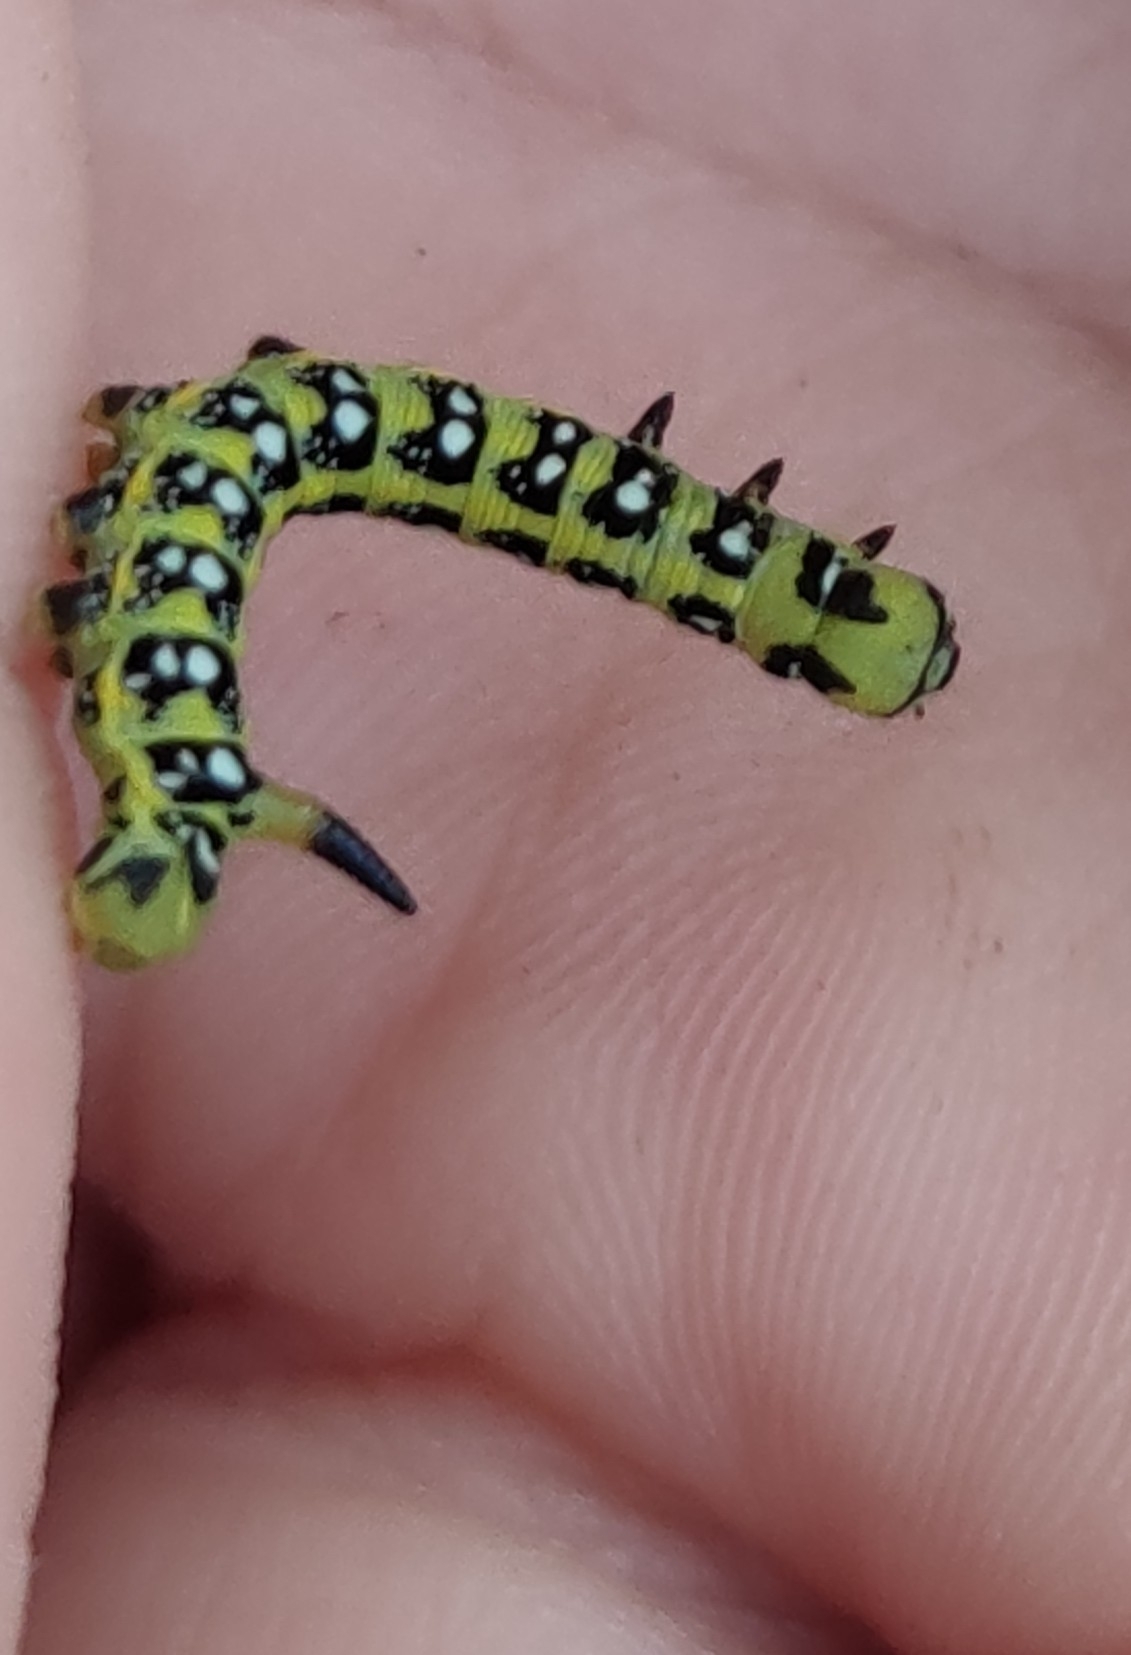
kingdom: Animalia
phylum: Arthropoda
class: Insecta
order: Lepidoptera
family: Sphingidae
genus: Hyles
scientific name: Hyles euphorbiae
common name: Spurge hawk-moth
